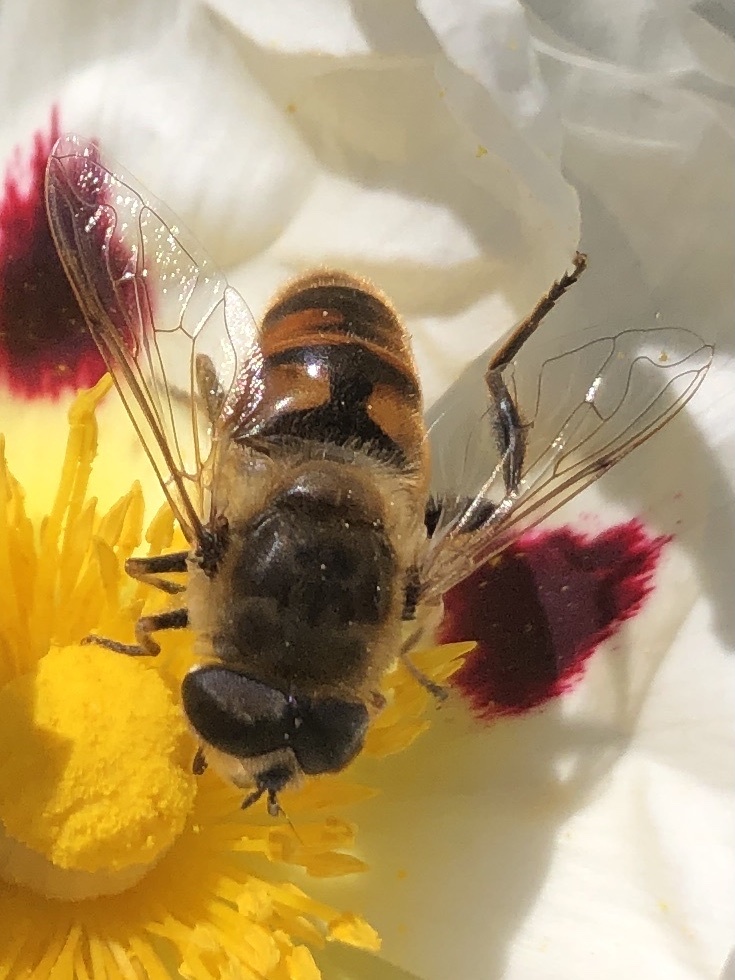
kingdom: Animalia
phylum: Arthropoda
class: Insecta
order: Diptera
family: Syrphidae
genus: Eristalis
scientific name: Eristalis tenax
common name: Drone fly
